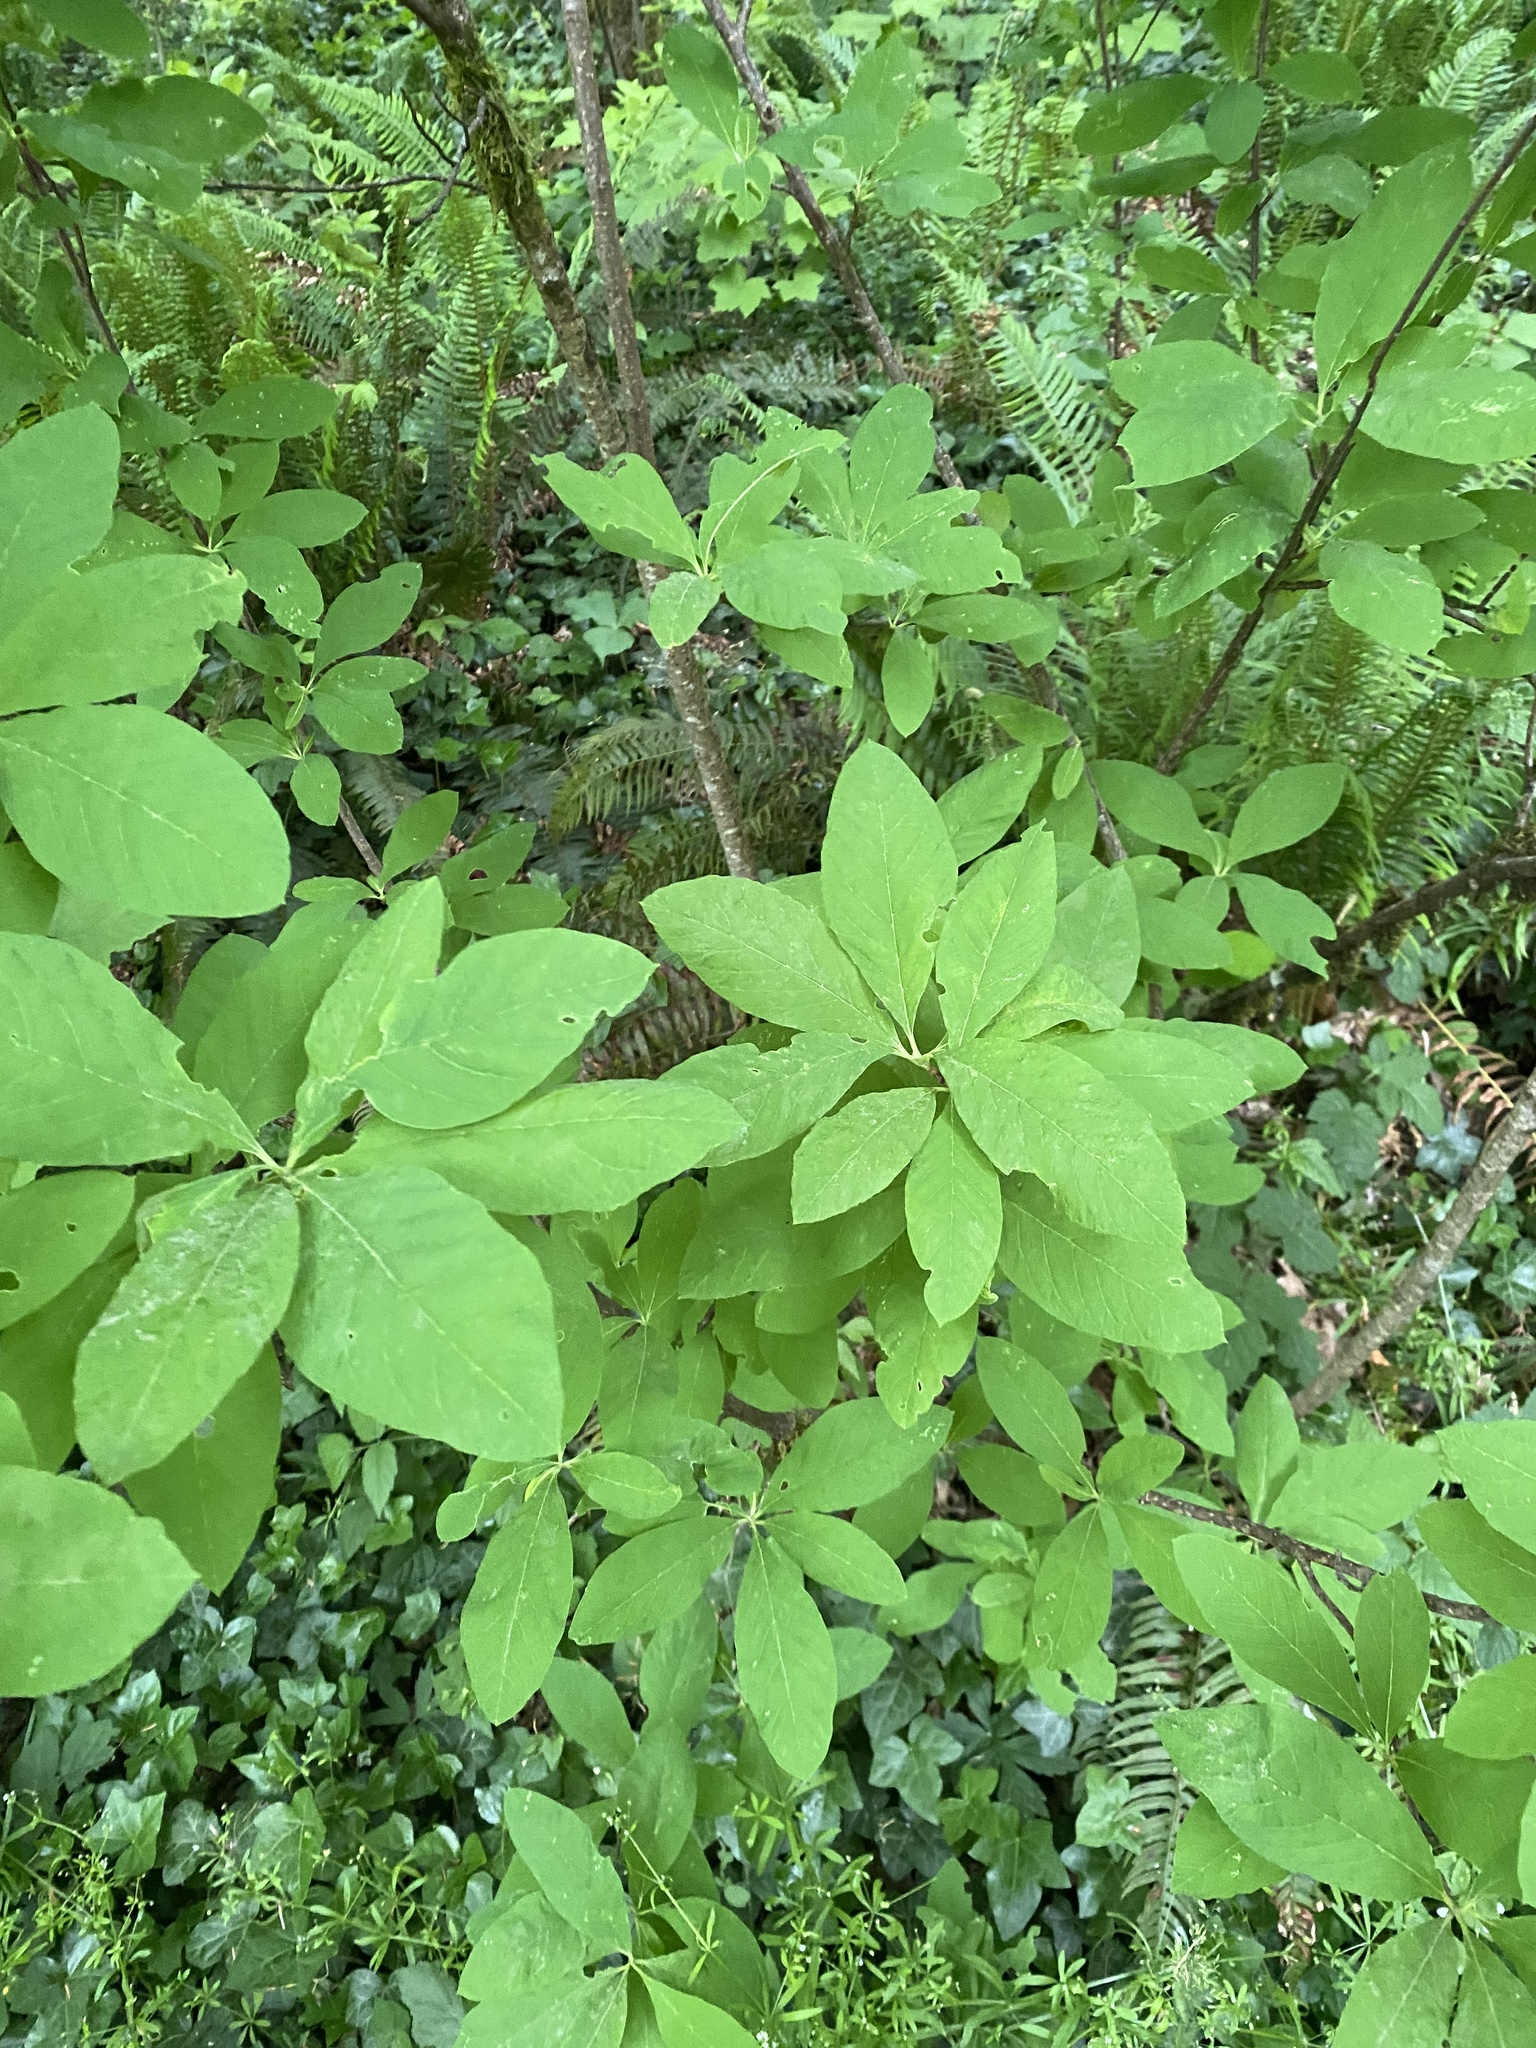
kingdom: Plantae
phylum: Tracheophyta
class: Magnoliopsida
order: Rosales
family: Rosaceae
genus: Oemleria
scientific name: Oemleria cerasiformis
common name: Osoberry
